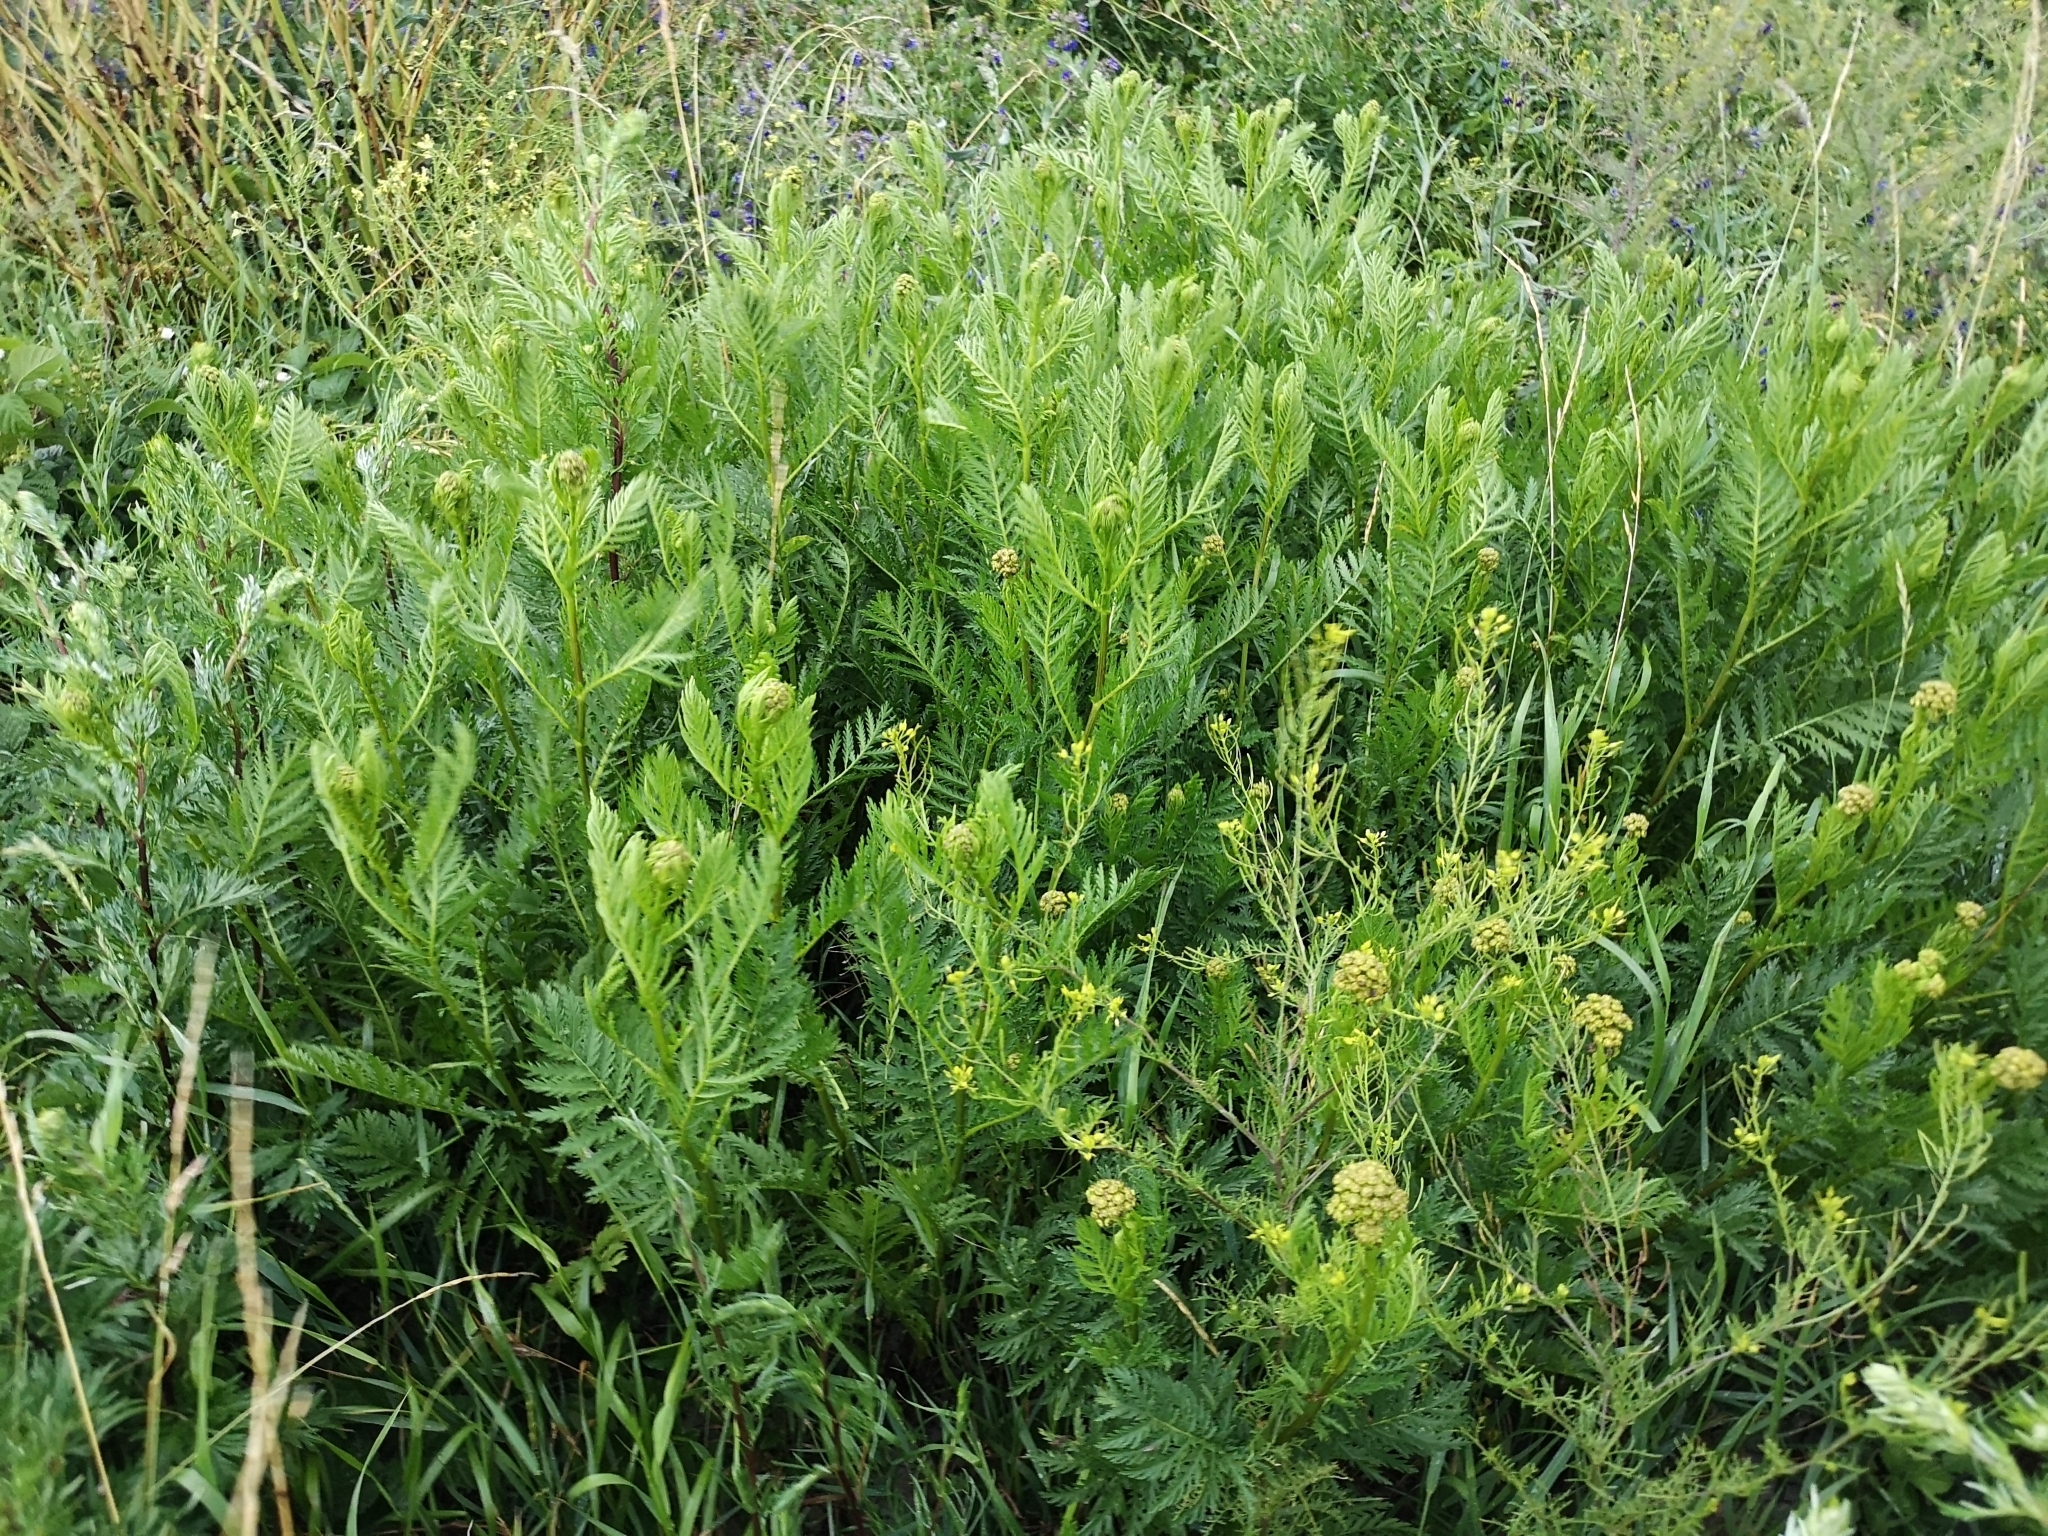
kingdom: Plantae
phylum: Tracheophyta
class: Magnoliopsida
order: Asterales
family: Asteraceae
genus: Tanacetum
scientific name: Tanacetum vulgare
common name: Common tansy
